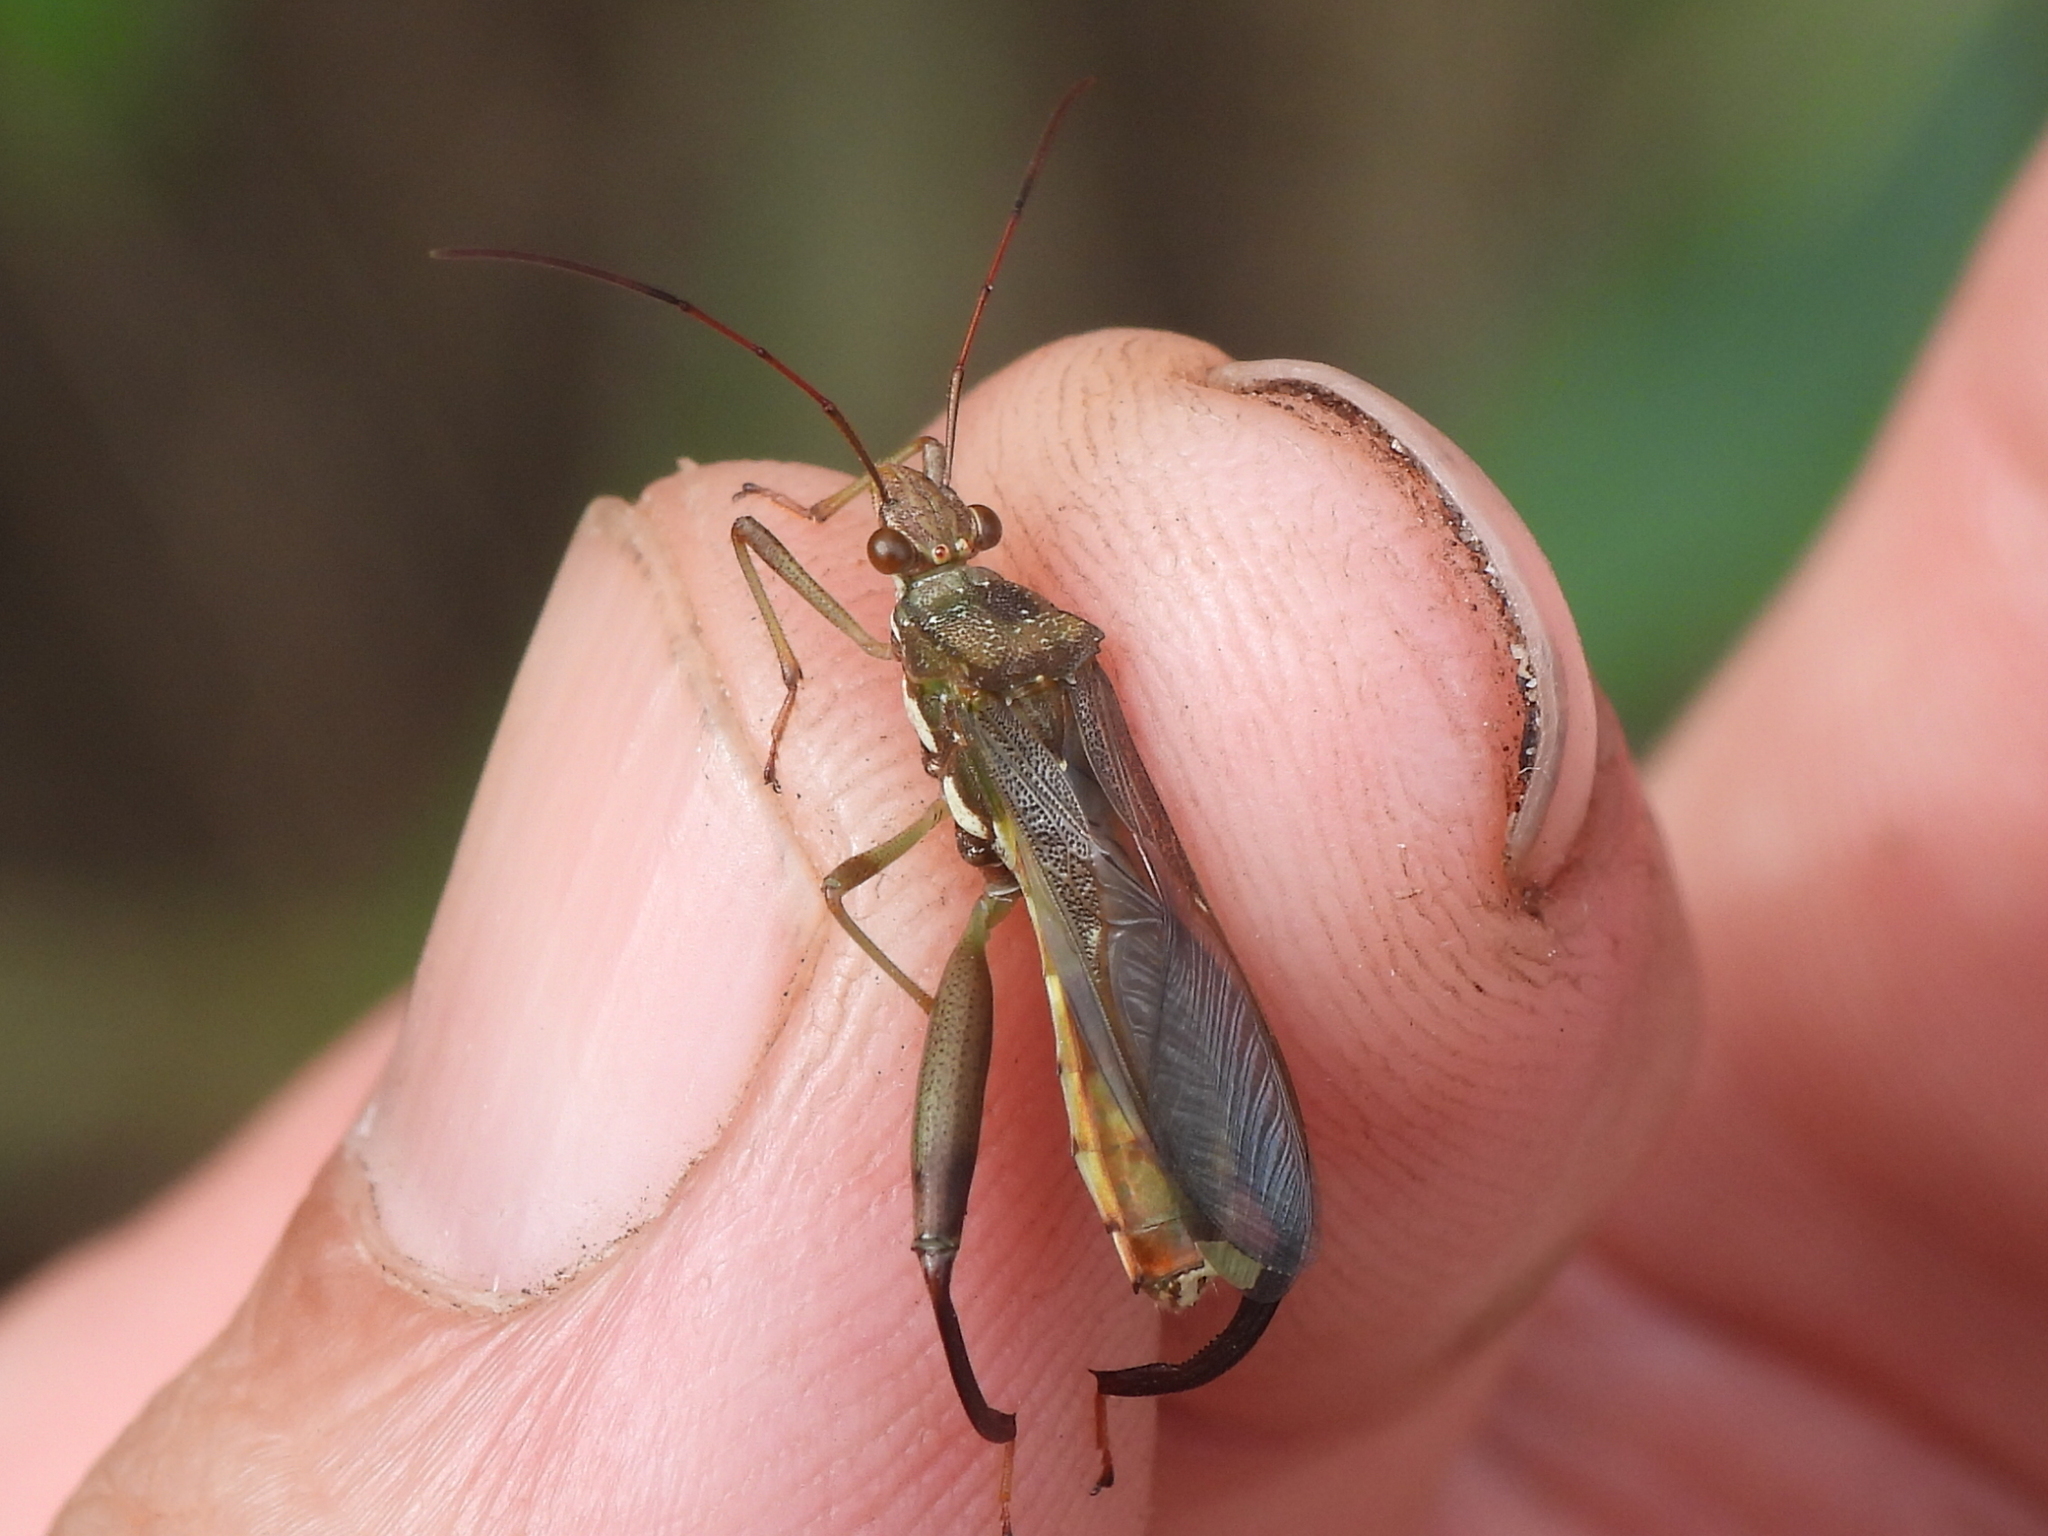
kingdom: Animalia
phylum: Arthropoda
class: Insecta
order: Hemiptera
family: Alydidae
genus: Hyalymenus
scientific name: Hyalymenus tarsatus
